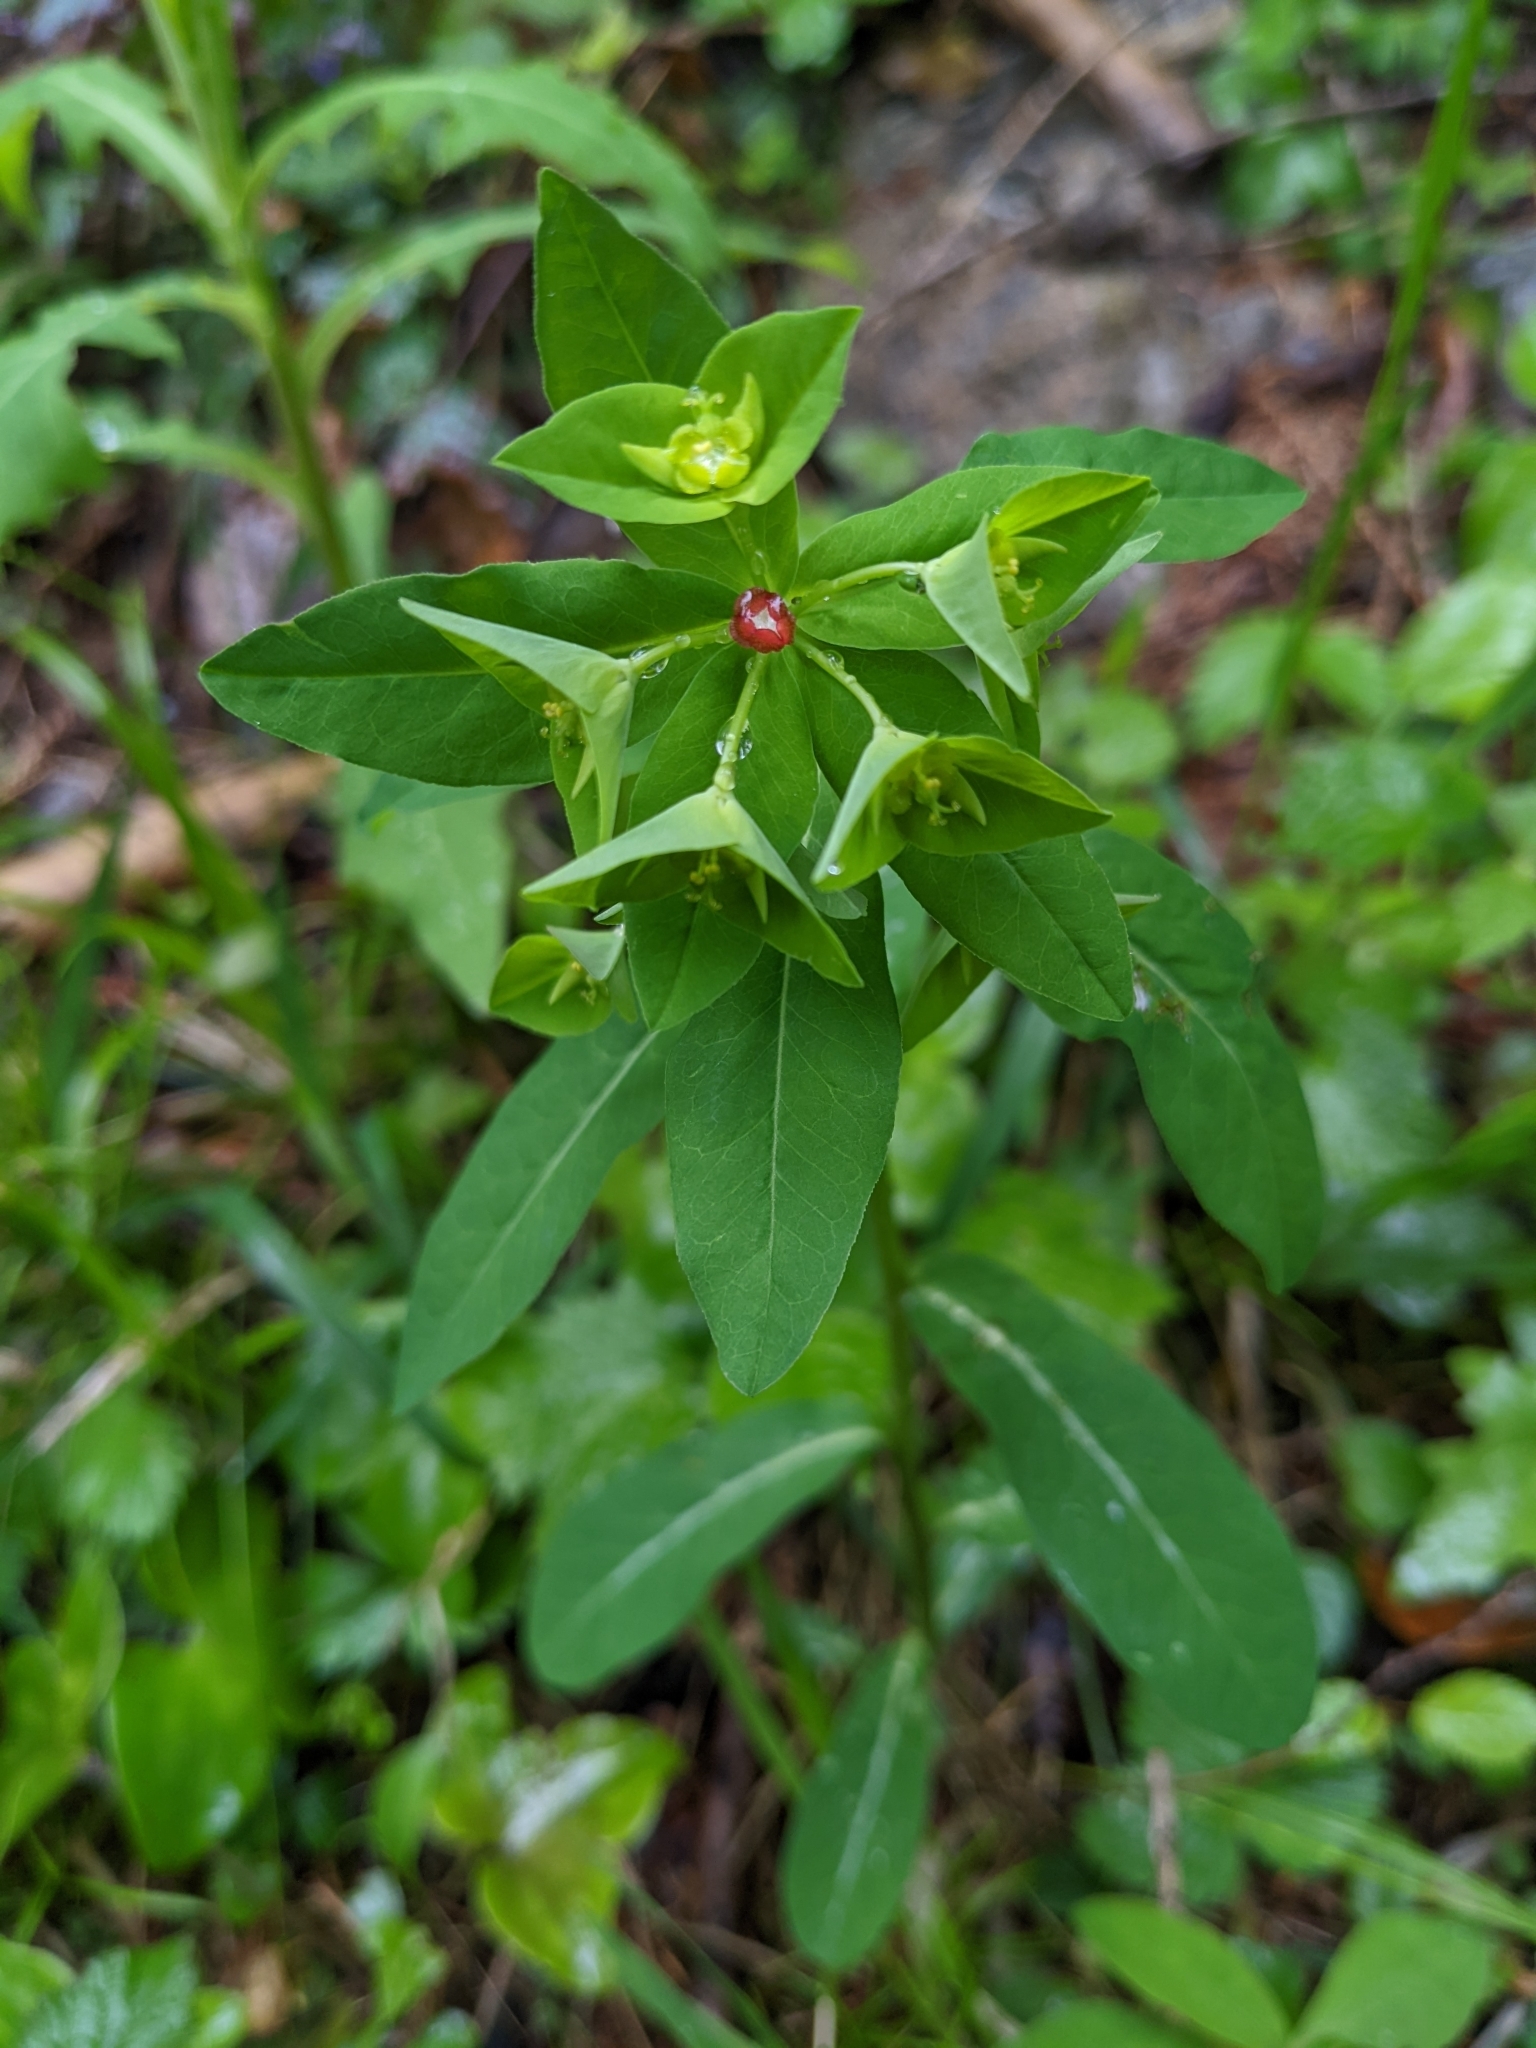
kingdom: Plantae
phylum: Tracheophyta
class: Magnoliopsida
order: Malpighiales
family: Euphorbiaceae
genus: Euphorbia
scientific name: Euphorbia dulcis
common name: Sweet spurge
